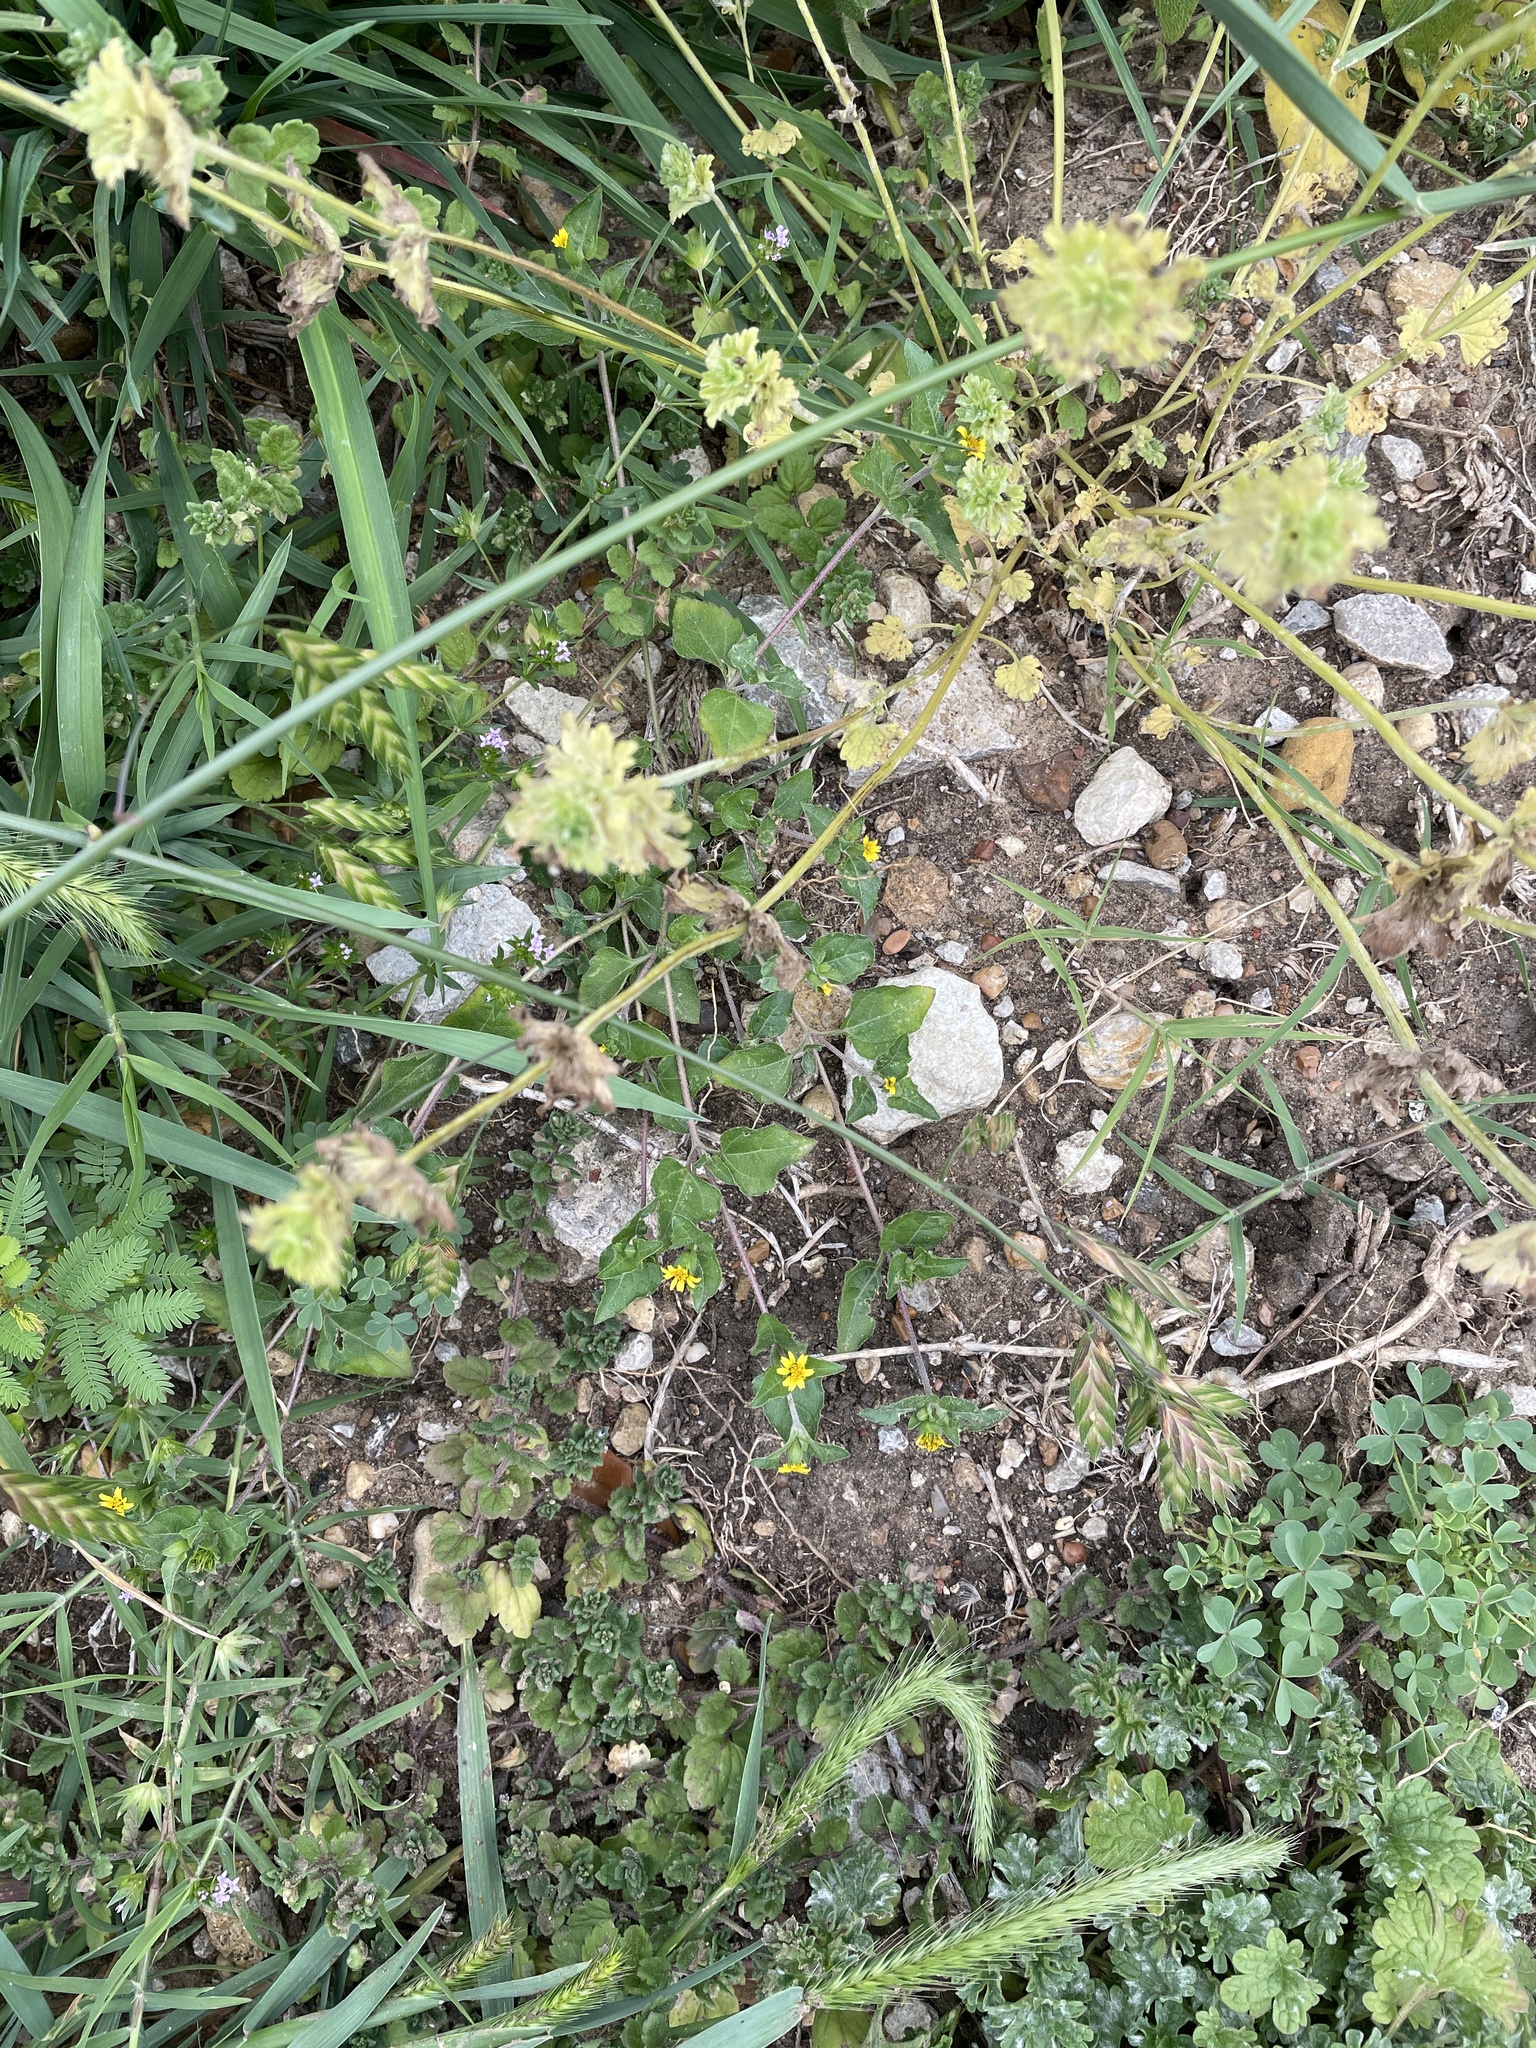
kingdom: Plantae
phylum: Tracheophyta
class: Magnoliopsida
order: Asterales
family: Asteraceae
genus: Calyptocarpus
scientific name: Calyptocarpus vialis
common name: Straggler daisy
